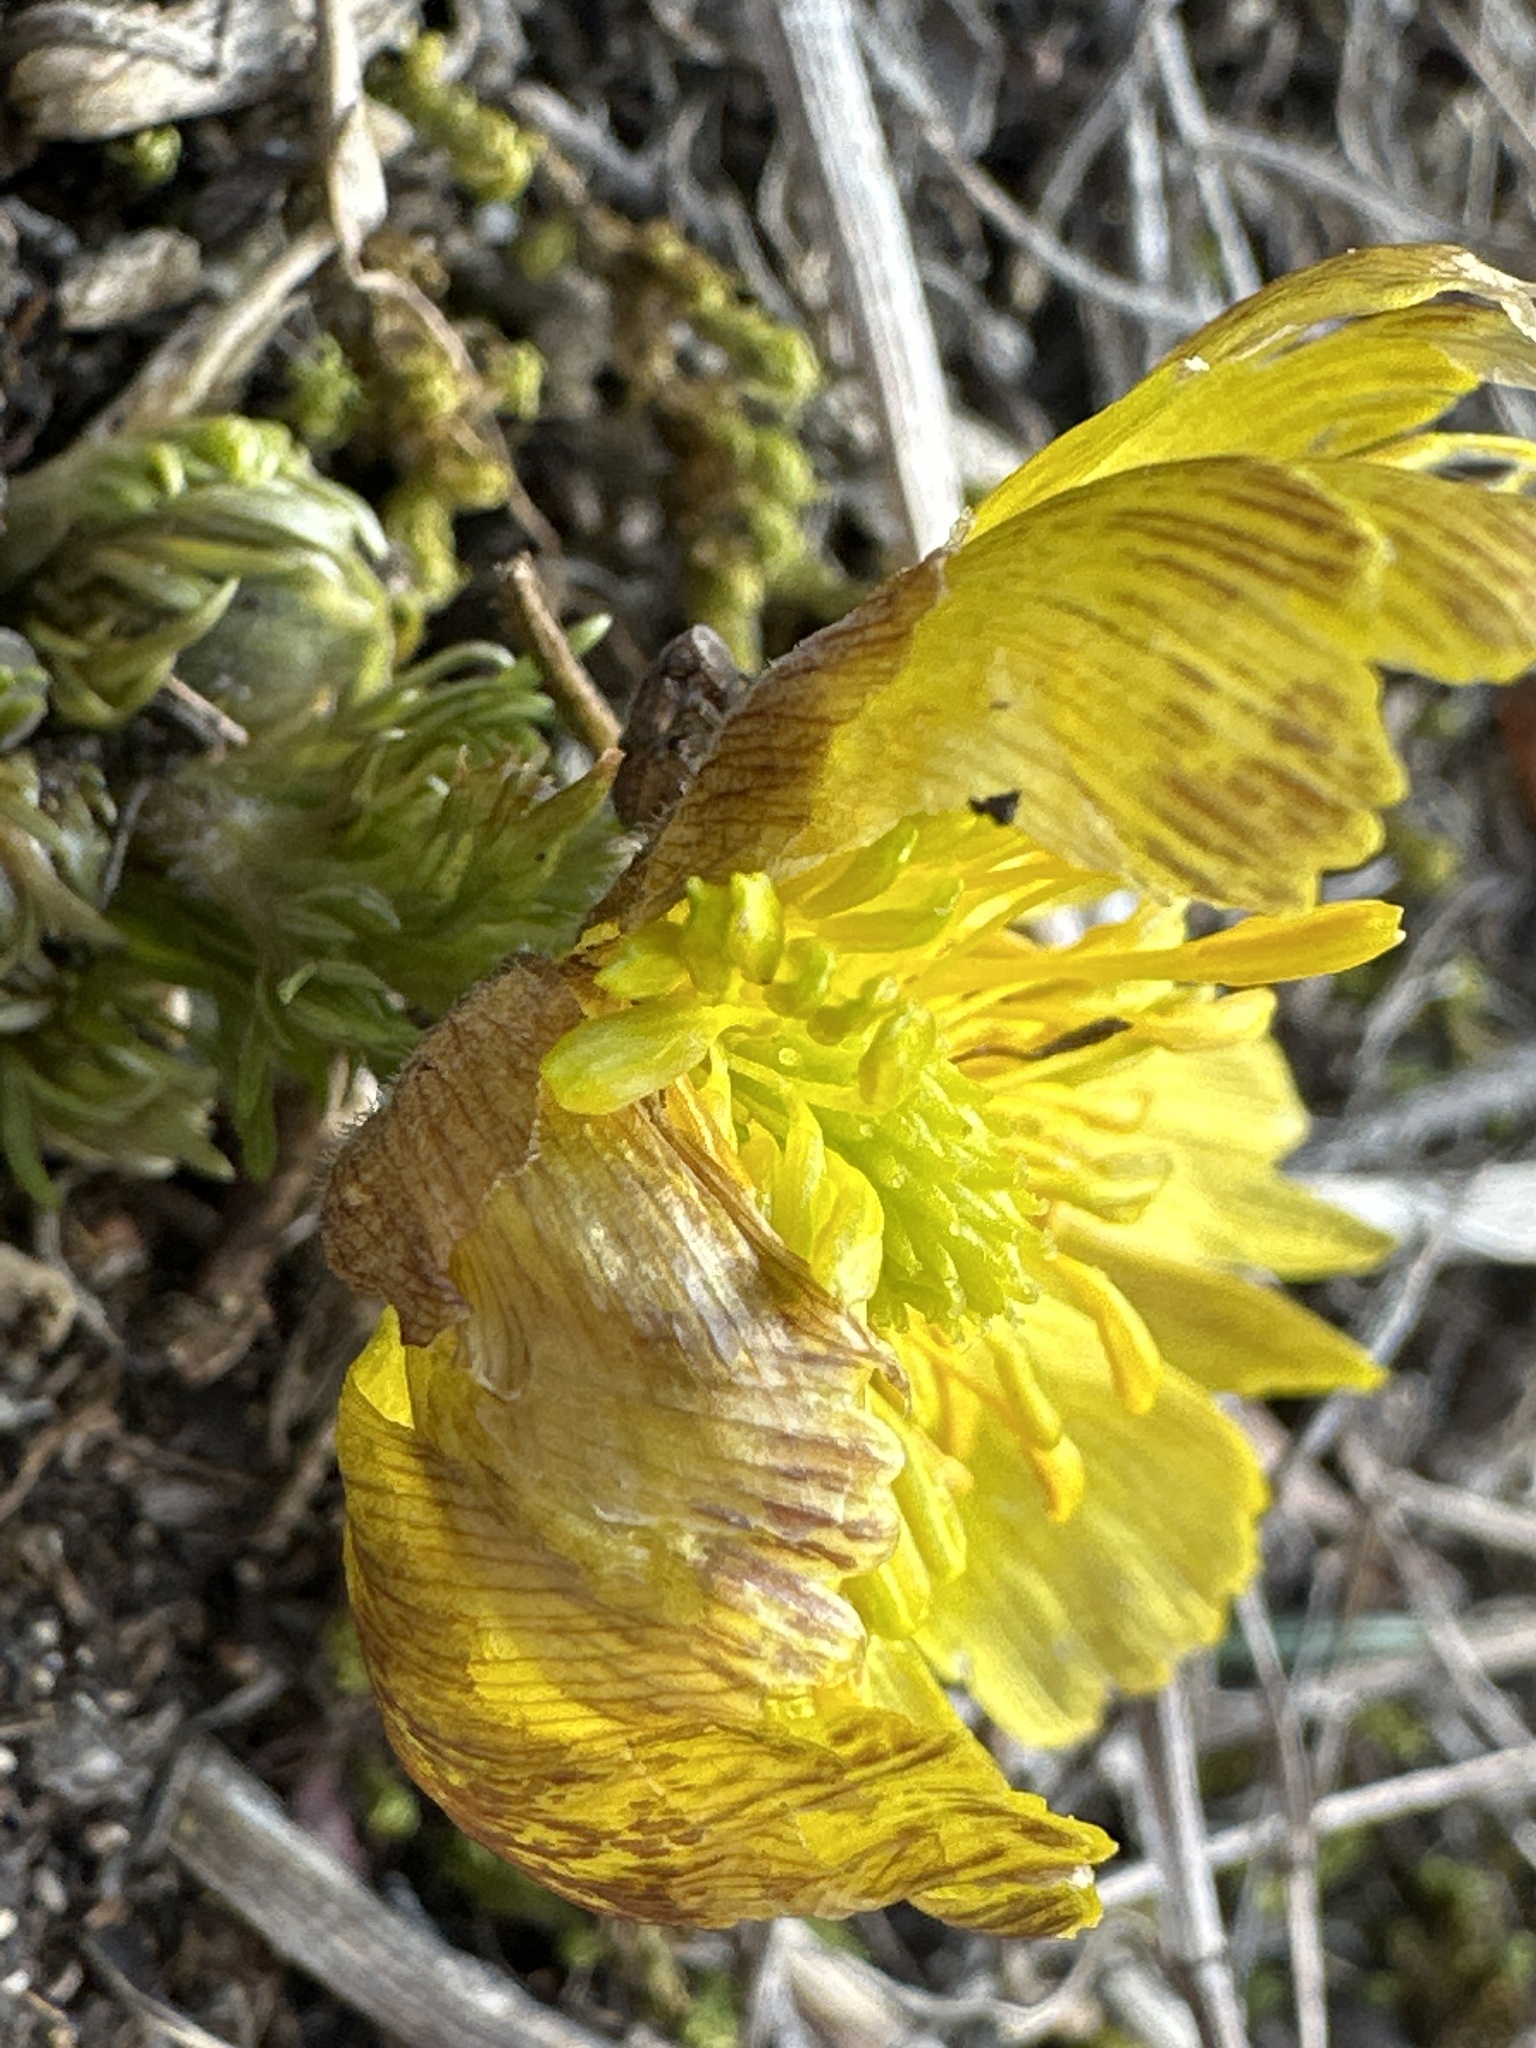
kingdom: Plantae
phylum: Tracheophyta
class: Magnoliopsida
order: Ranunculales
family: Ranunculaceae
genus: Adonis
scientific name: Adonis vernalis
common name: Yellow pheasants-eye
